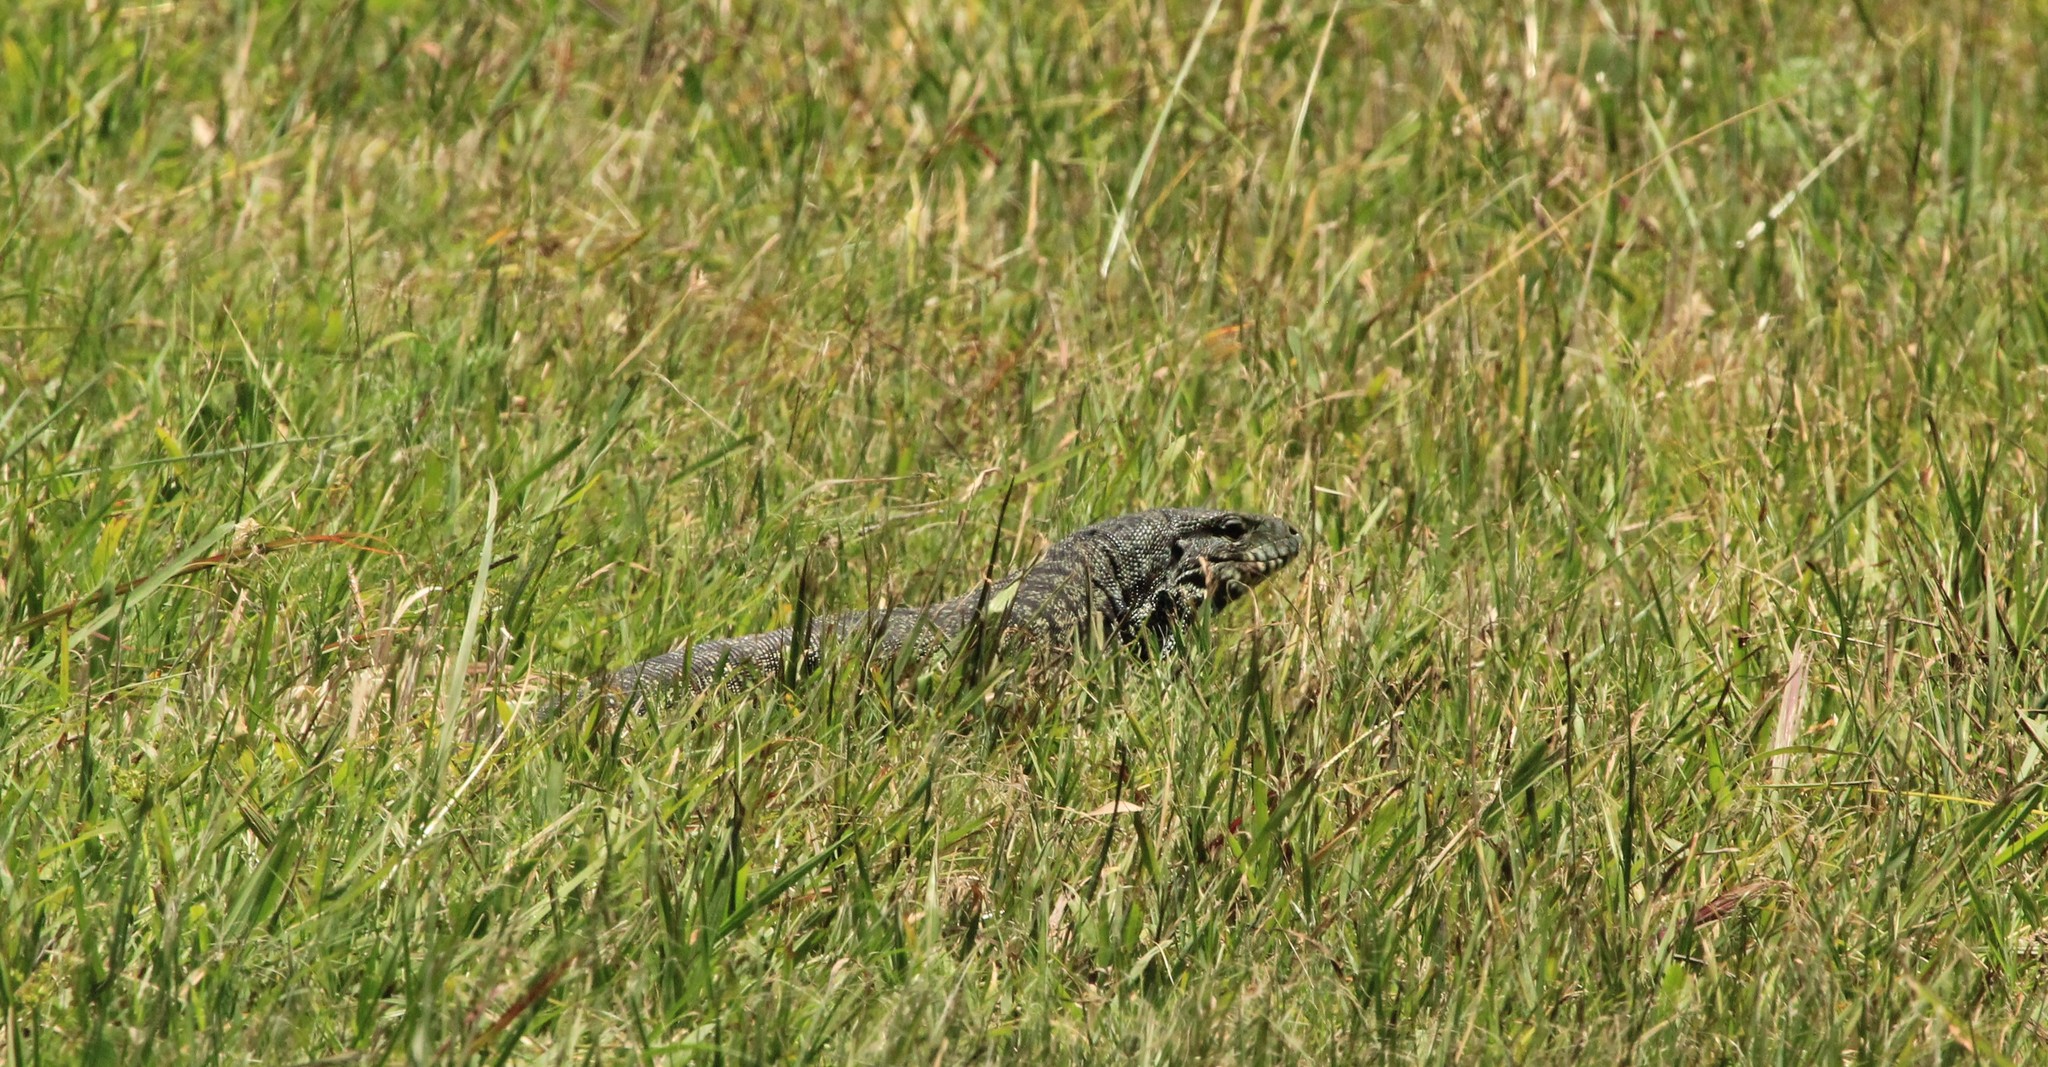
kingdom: Animalia
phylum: Chordata
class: Squamata
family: Teiidae
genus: Salvator
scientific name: Salvator merianae
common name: Argentine black and white tegu
